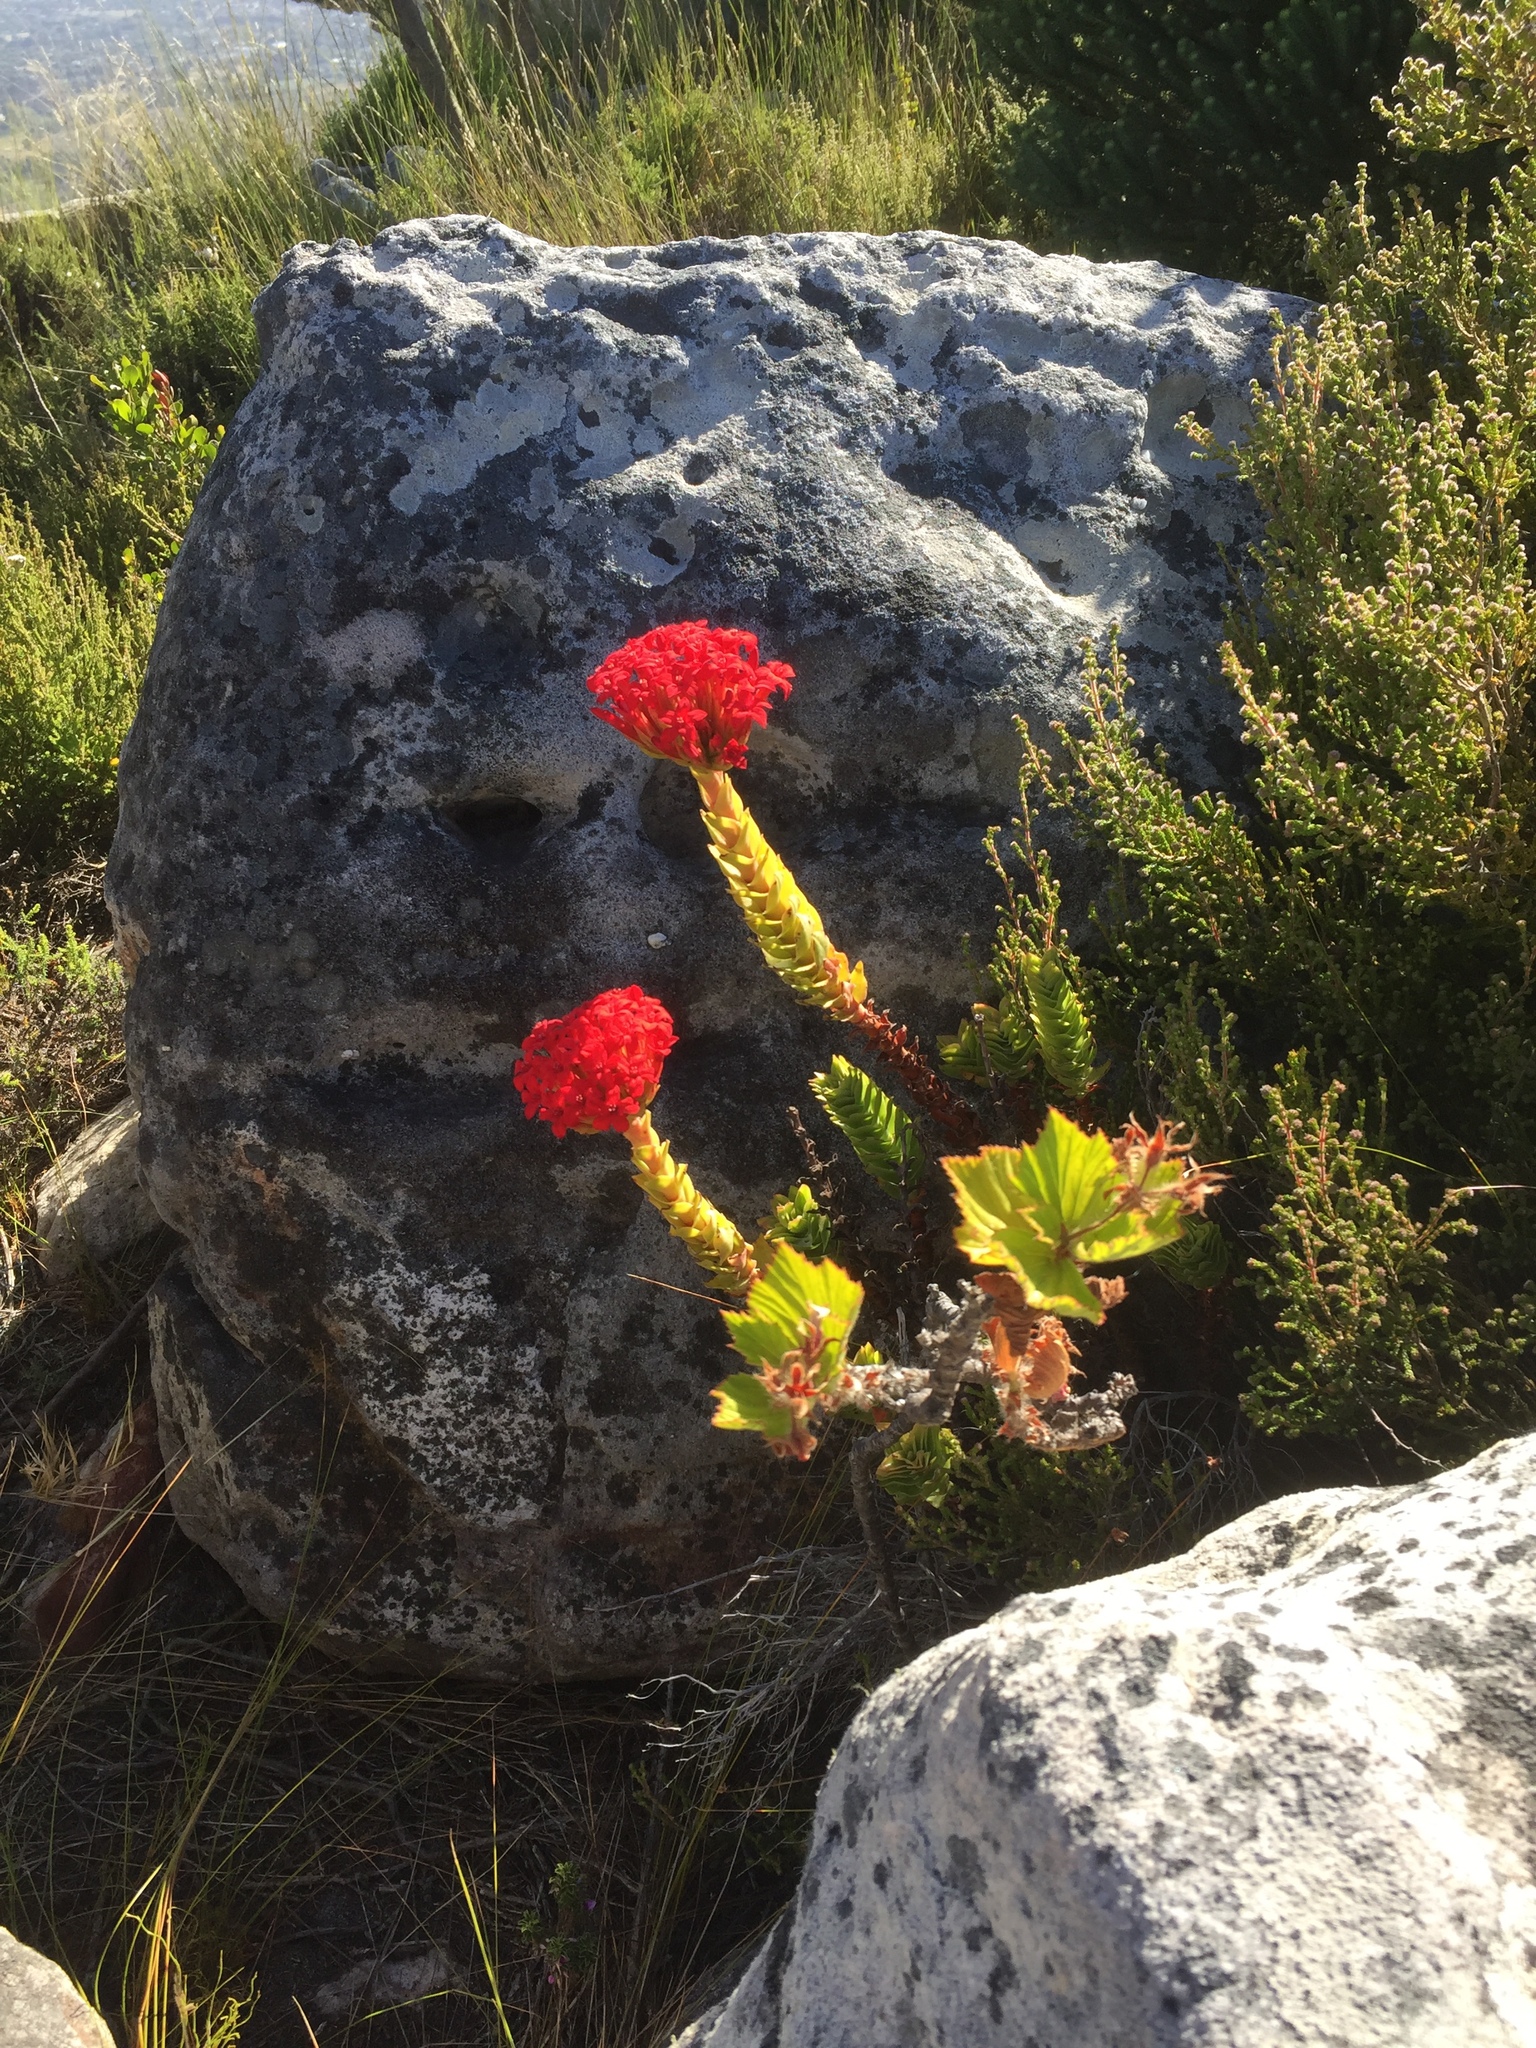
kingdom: Plantae
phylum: Tracheophyta
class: Magnoliopsida
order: Saxifragales
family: Crassulaceae
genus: Crassula
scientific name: Crassula coccinea
